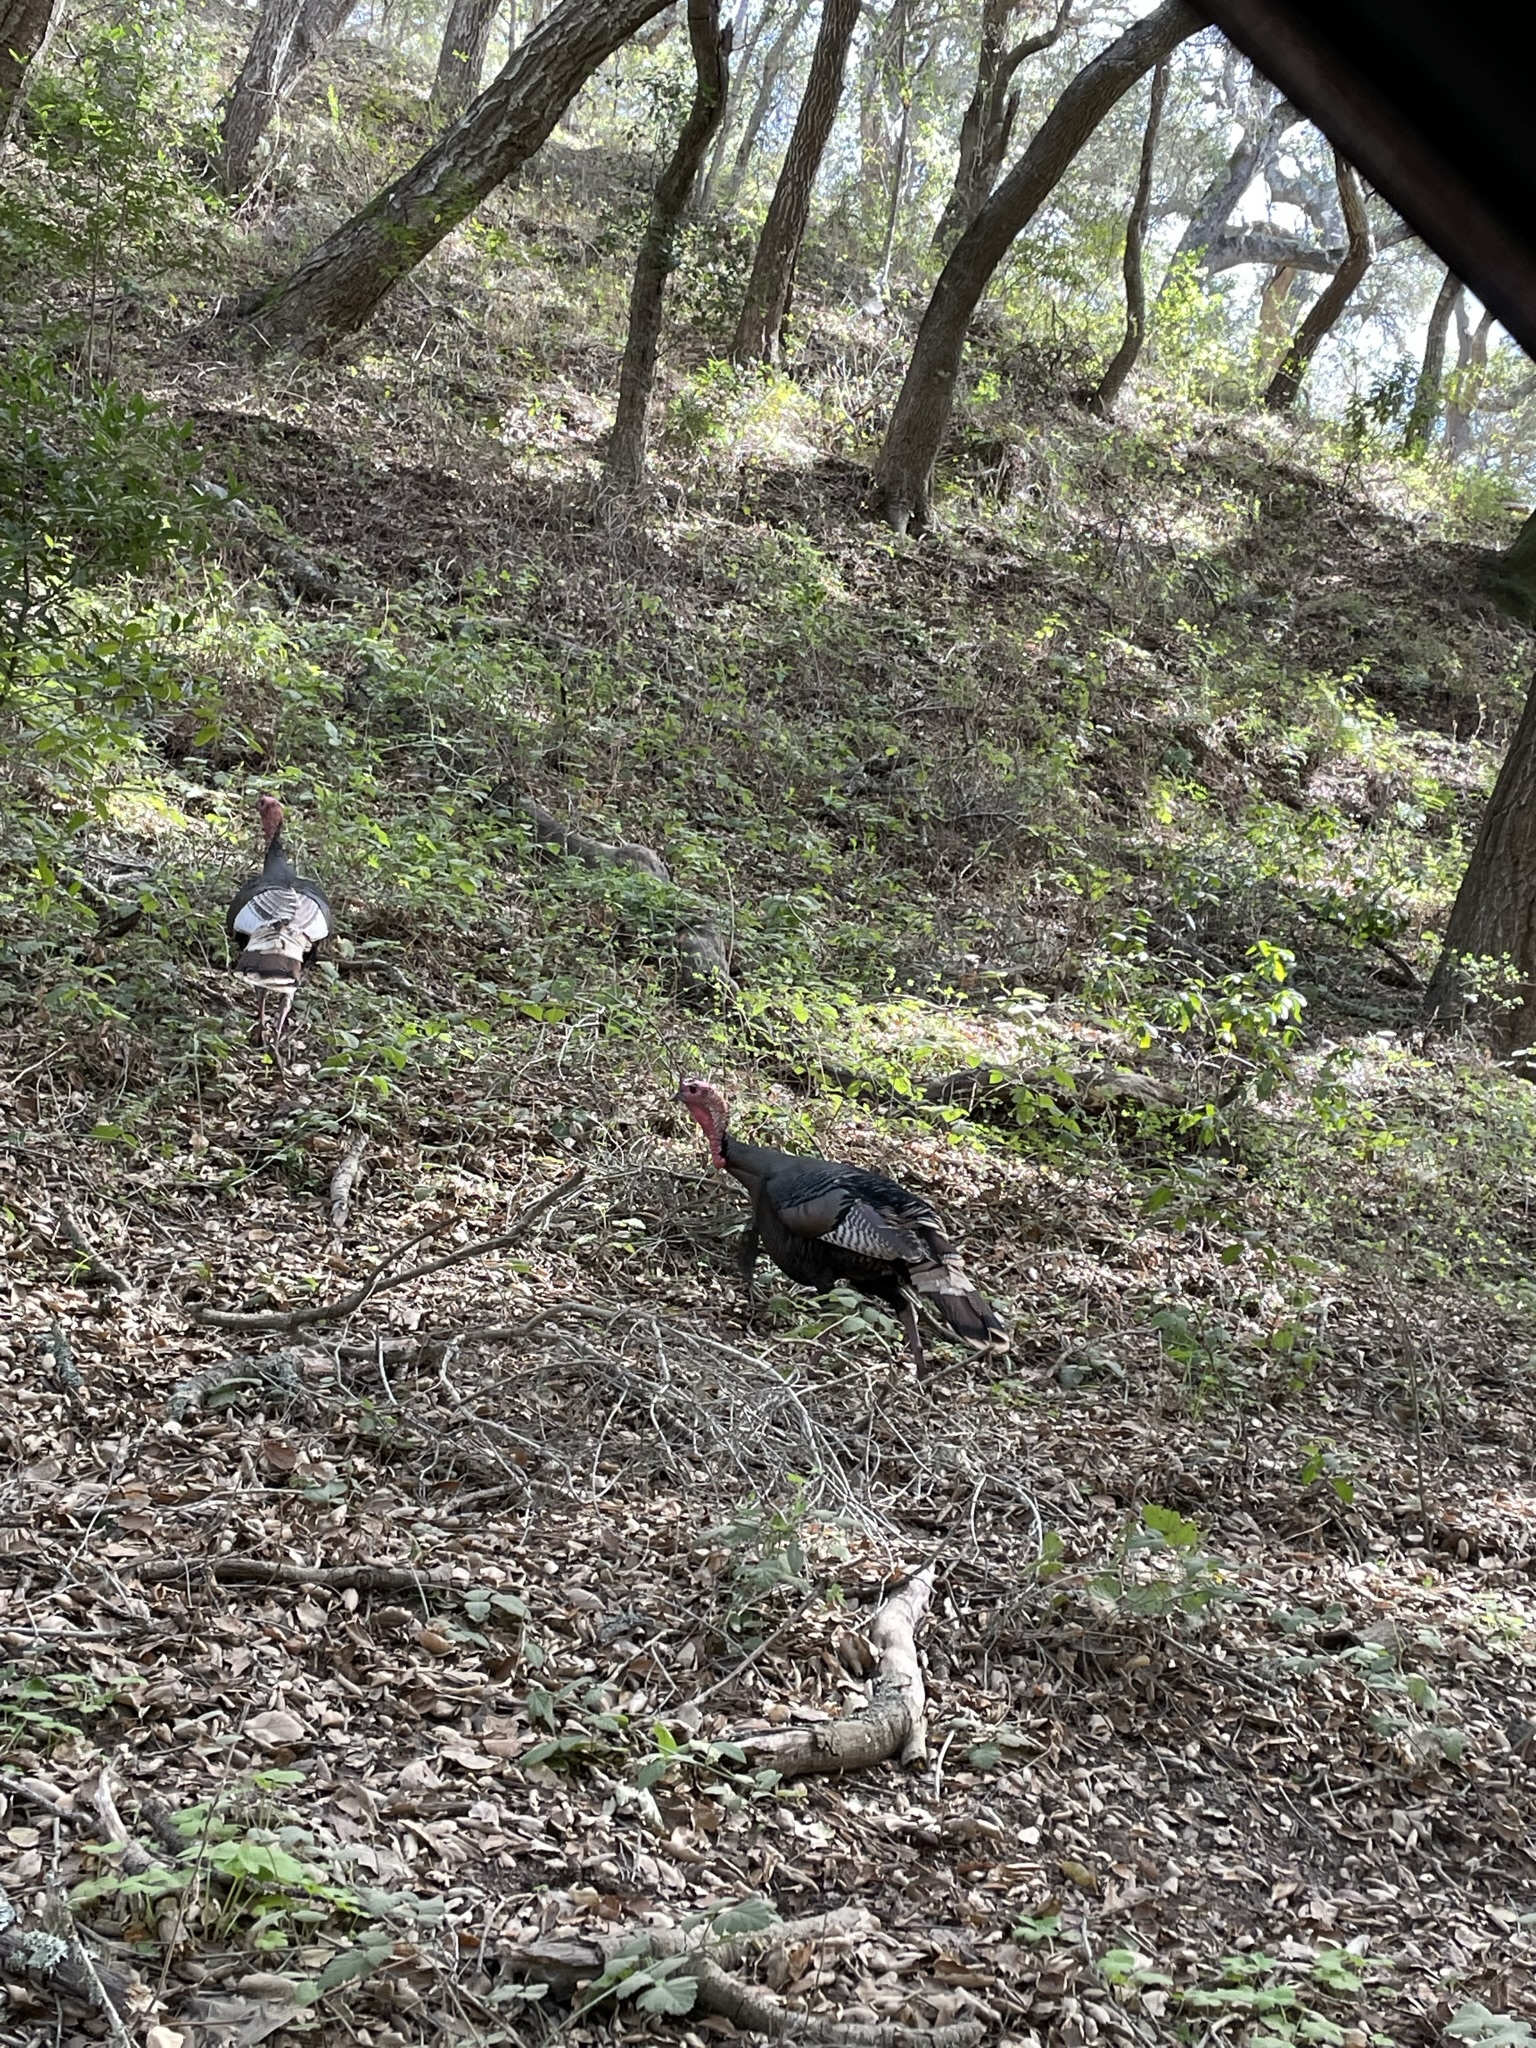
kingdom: Animalia
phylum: Chordata
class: Aves
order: Galliformes
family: Phasianidae
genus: Meleagris
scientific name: Meleagris gallopavo
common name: Wild turkey
